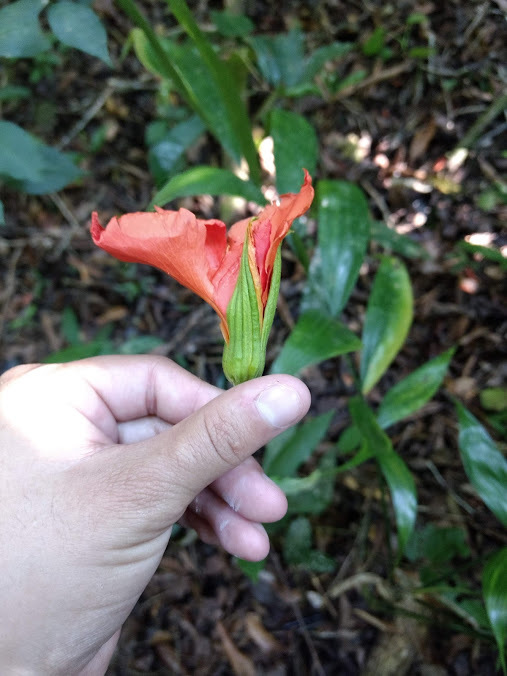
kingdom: Plantae
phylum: Tracheophyta
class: Magnoliopsida
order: Malpighiales
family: Turneraceae
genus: Erblichia
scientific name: Erblichia odorata
